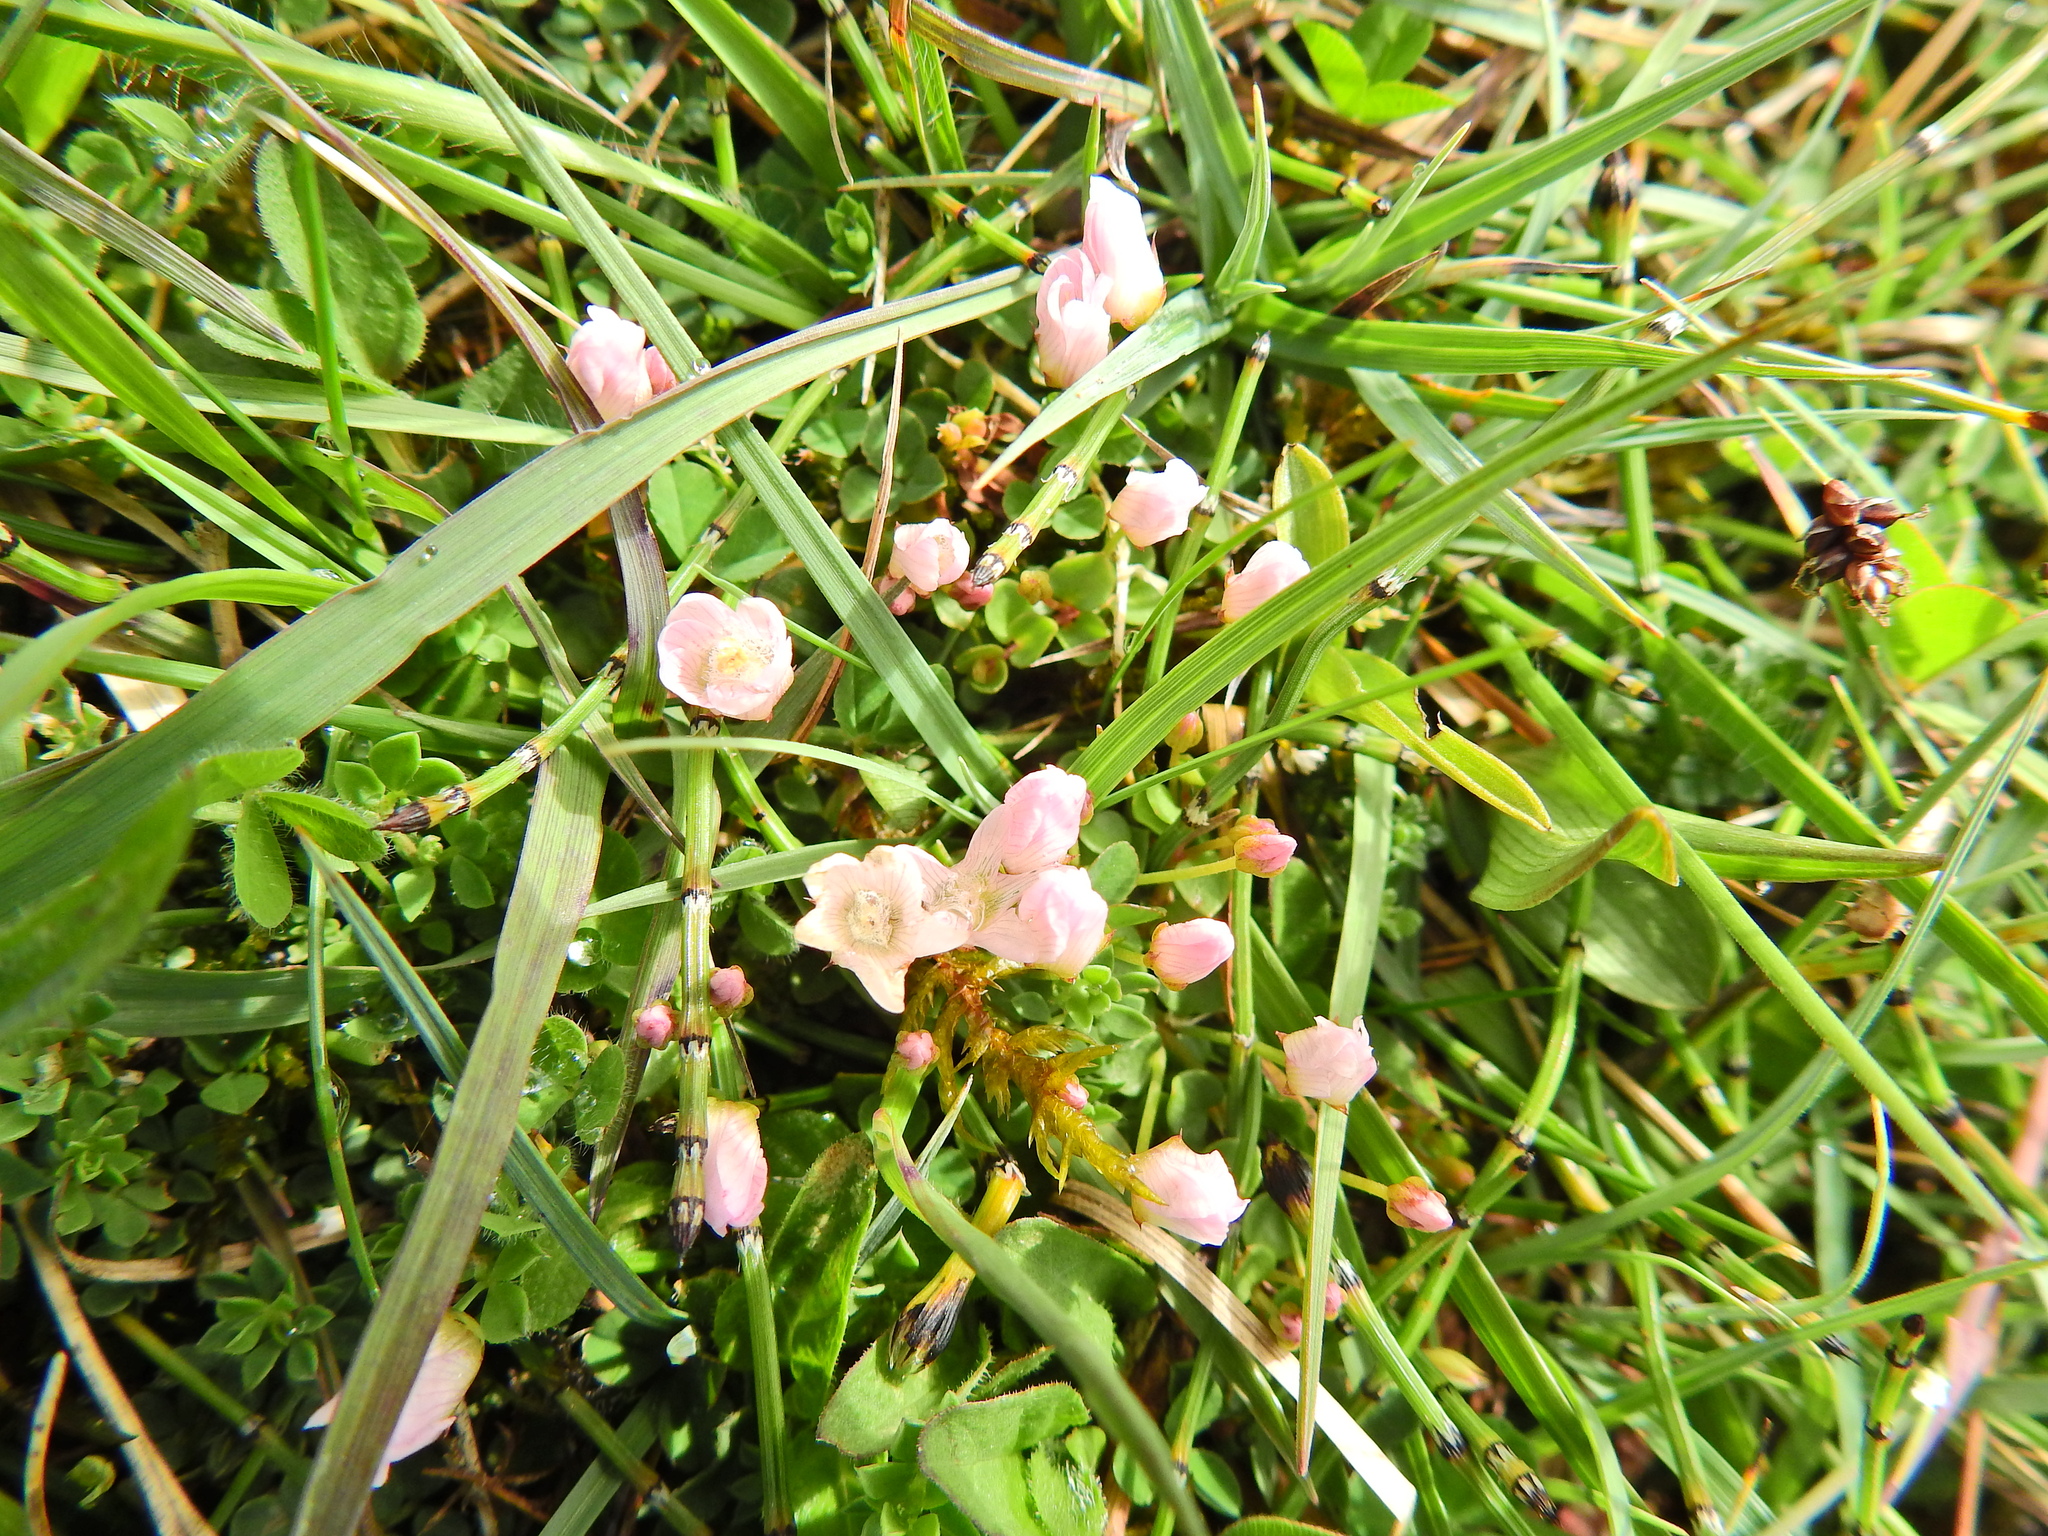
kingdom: Plantae
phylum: Tracheophyta
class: Magnoliopsida
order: Ericales
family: Primulaceae
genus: Lysimachia
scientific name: Lysimachia tenella
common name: European bog pimpernel
